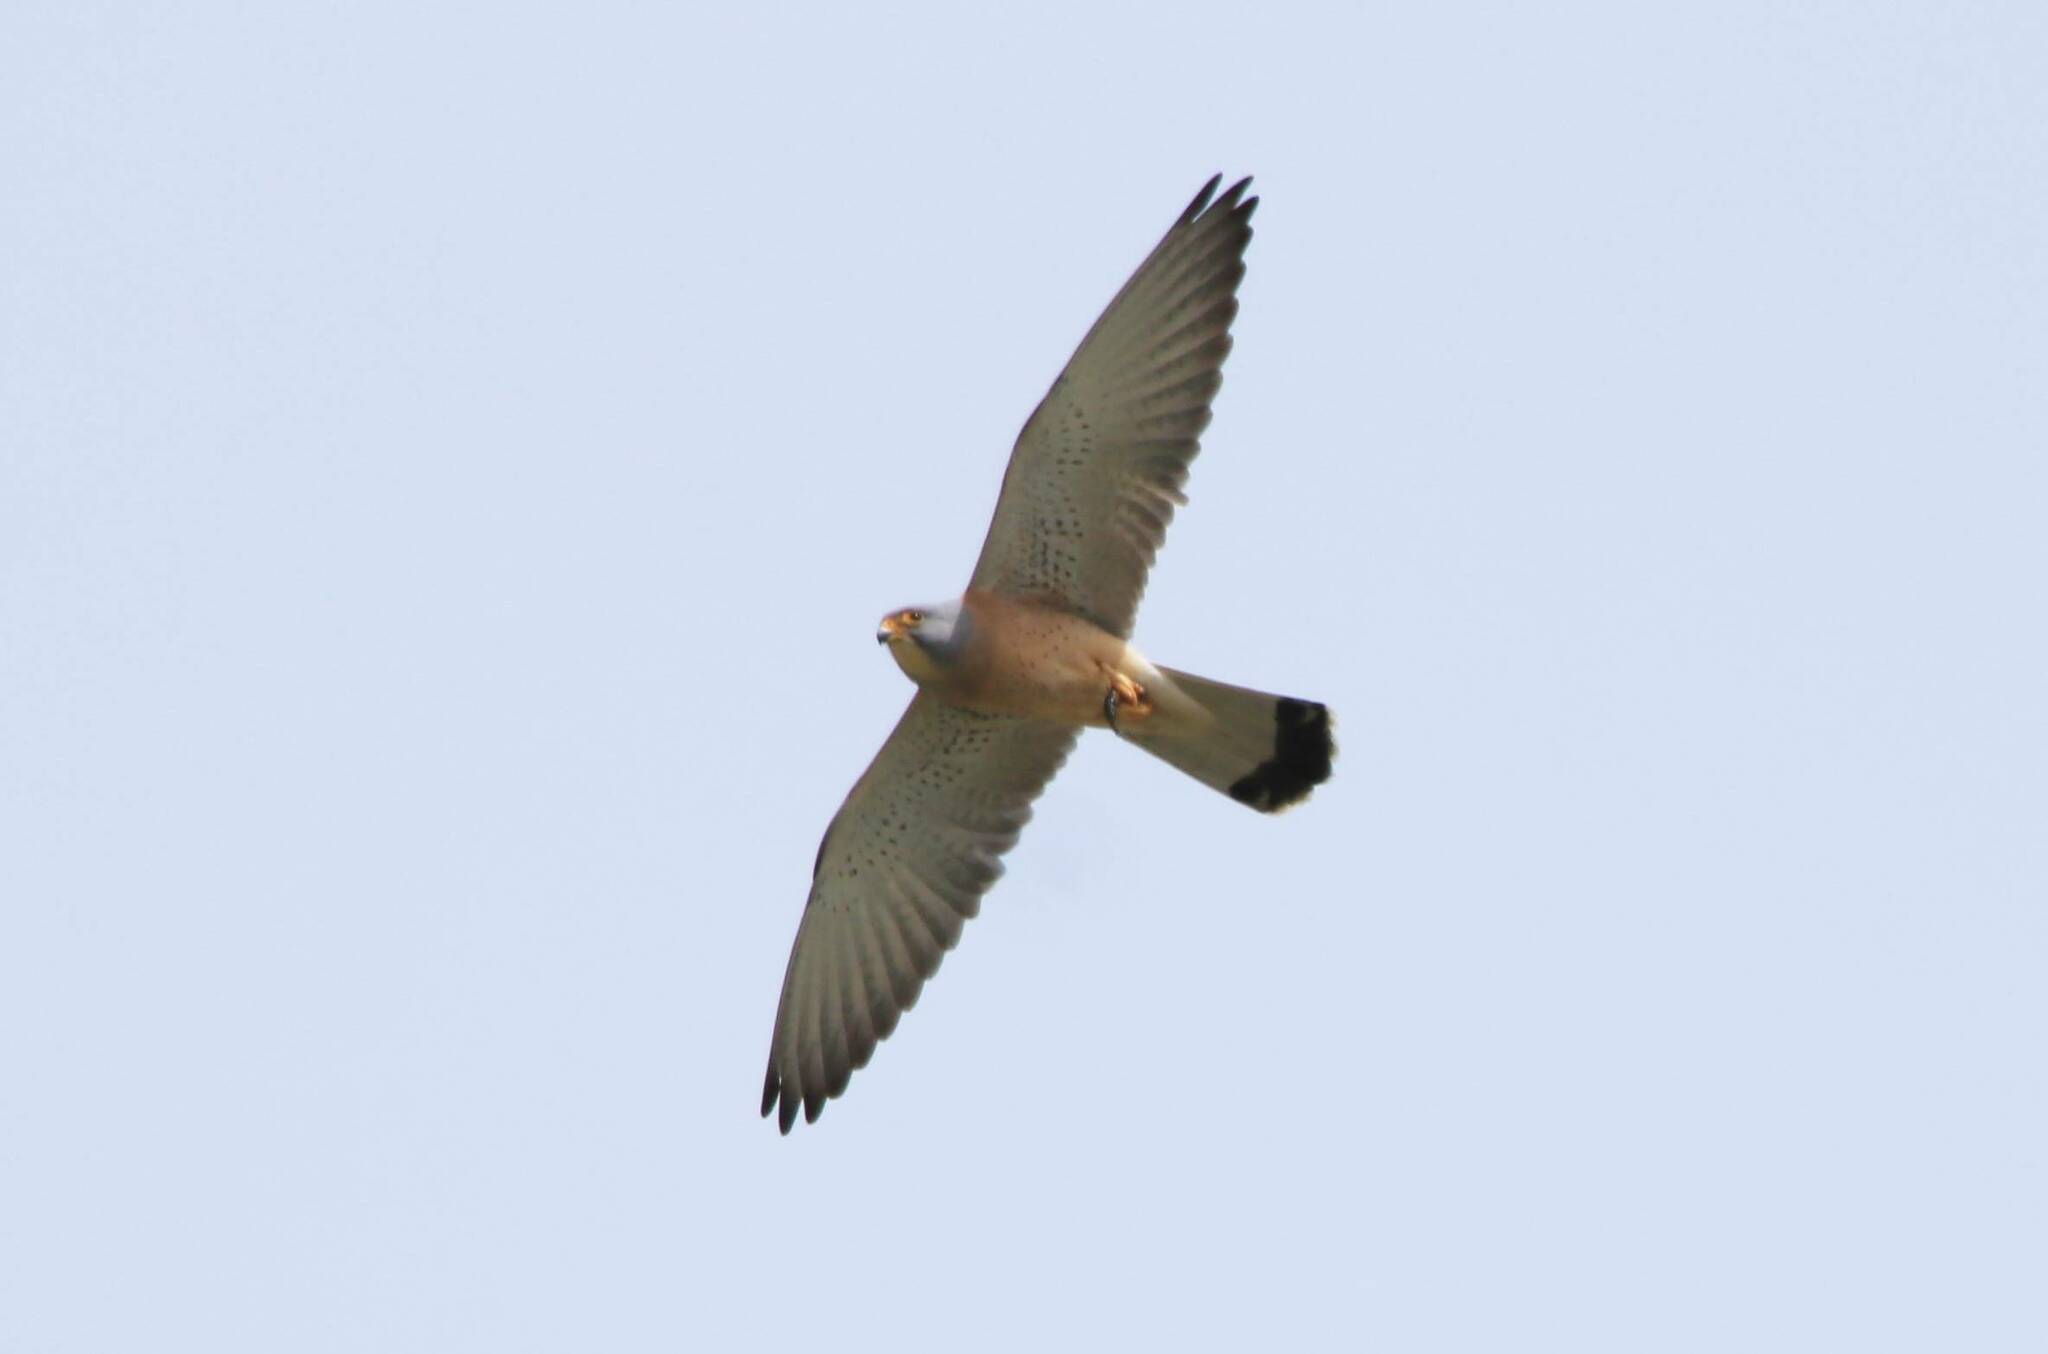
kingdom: Animalia
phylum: Chordata
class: Aves
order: Falconiformes
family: Falconidae
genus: Falco
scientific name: Falco naumanni
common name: Lesser kestrel
